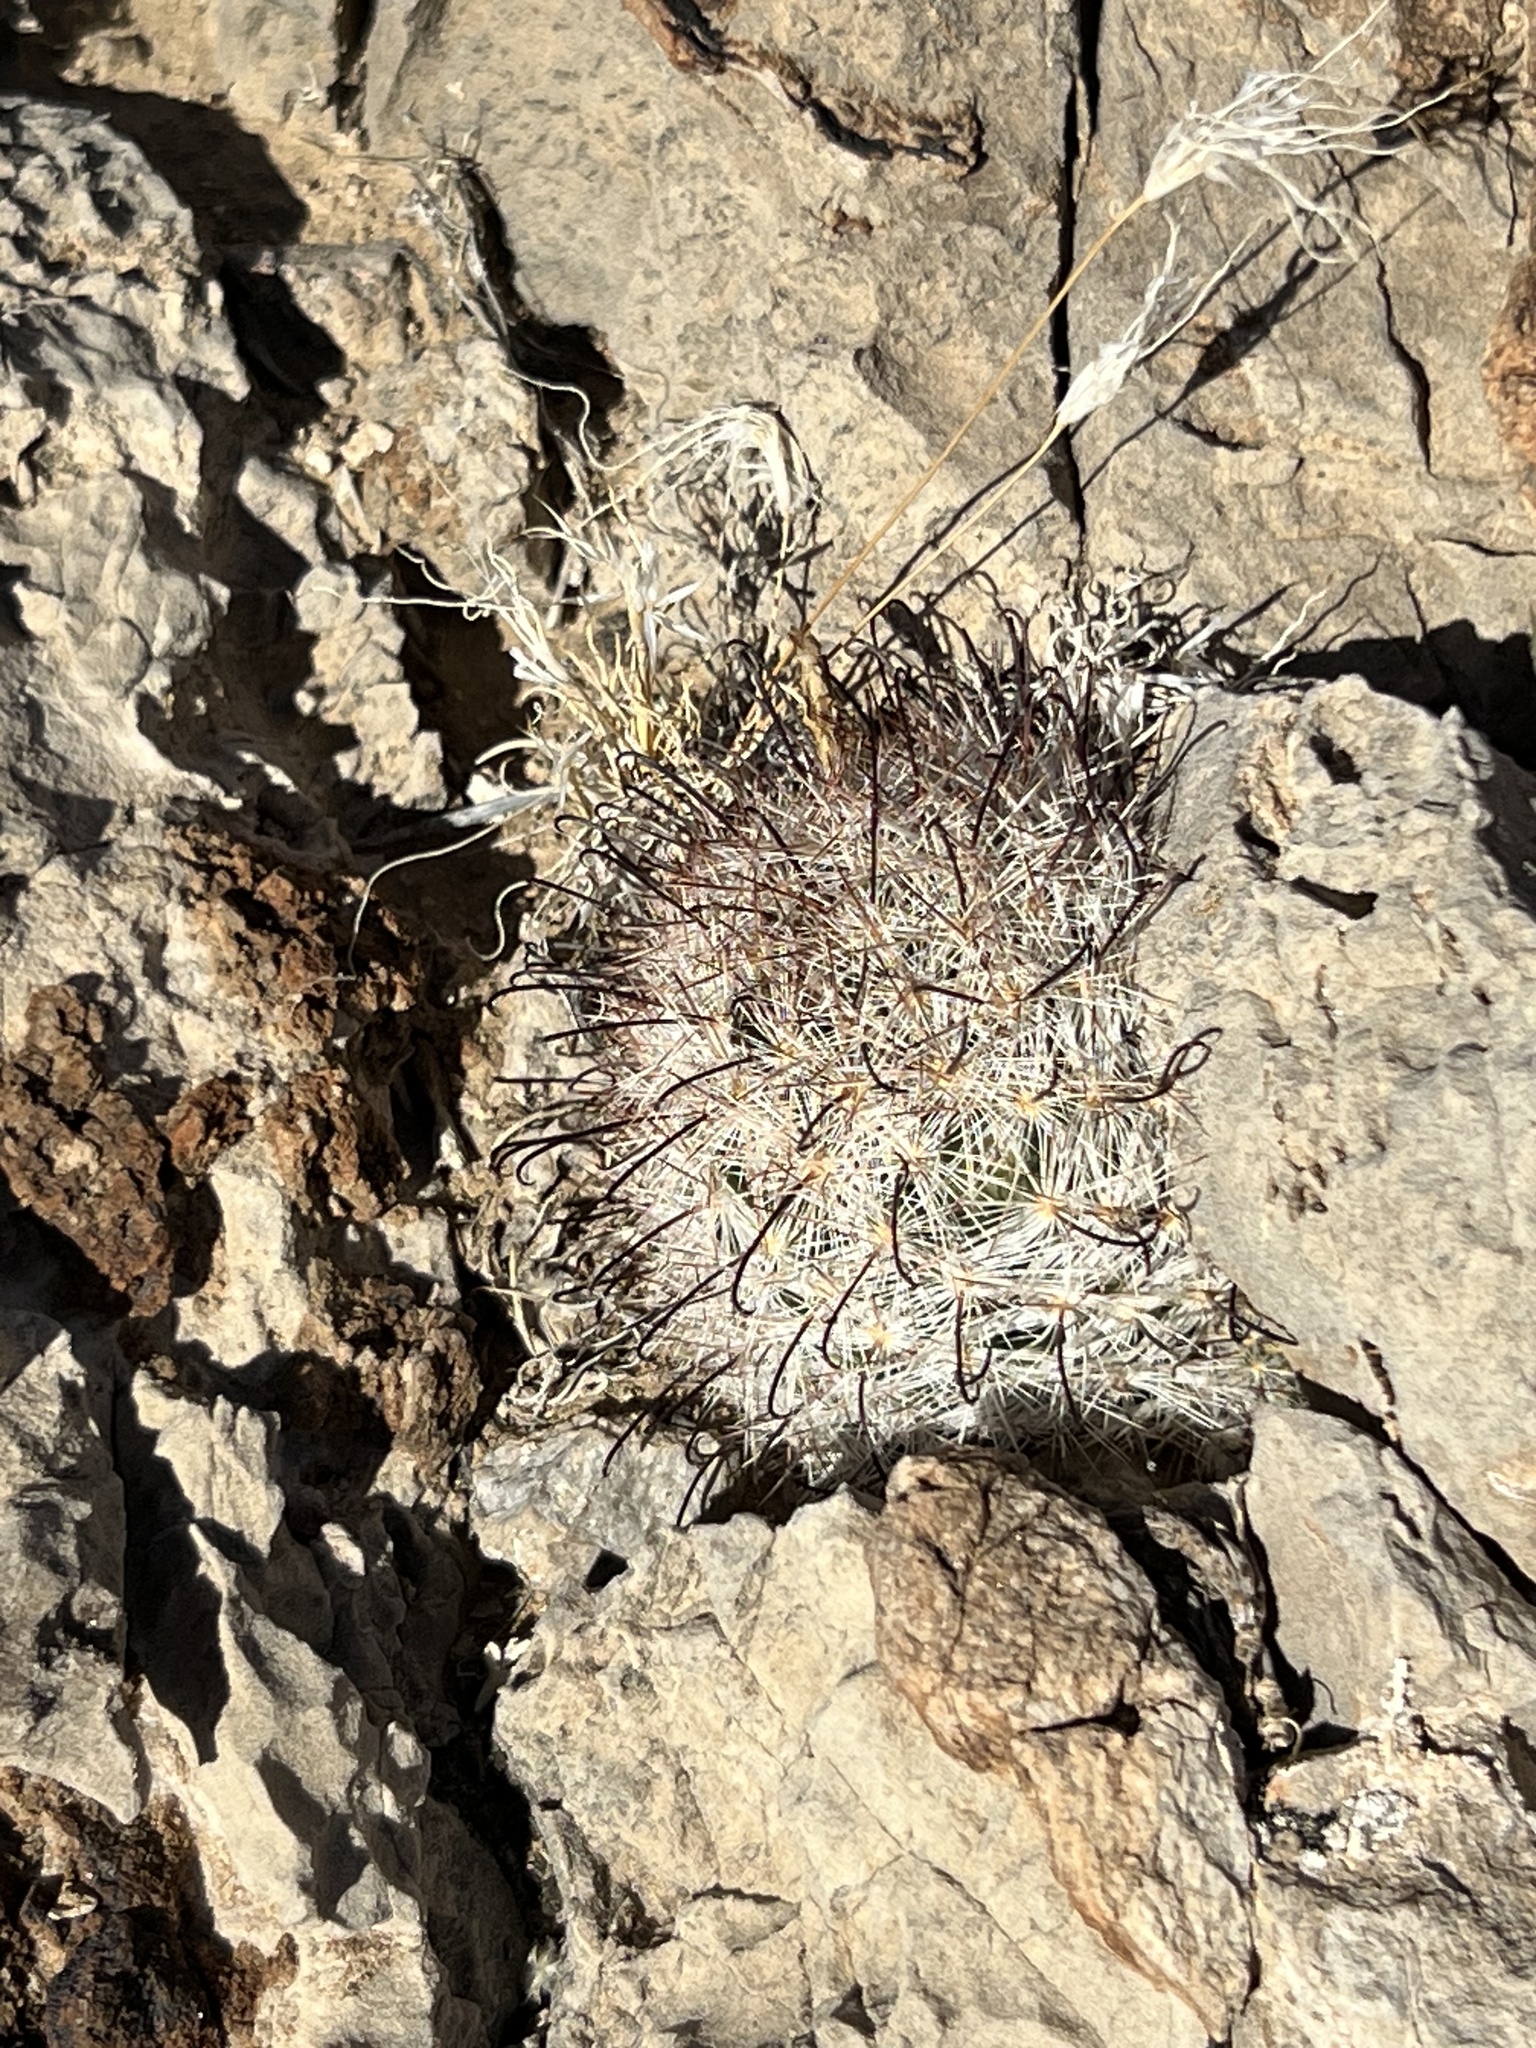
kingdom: Plantae
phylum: Tracheophyta
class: Magnoliopsida
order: Caryophyllales
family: Cactaceae
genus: Cochemiea
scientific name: Cochemiea tetrancistra
